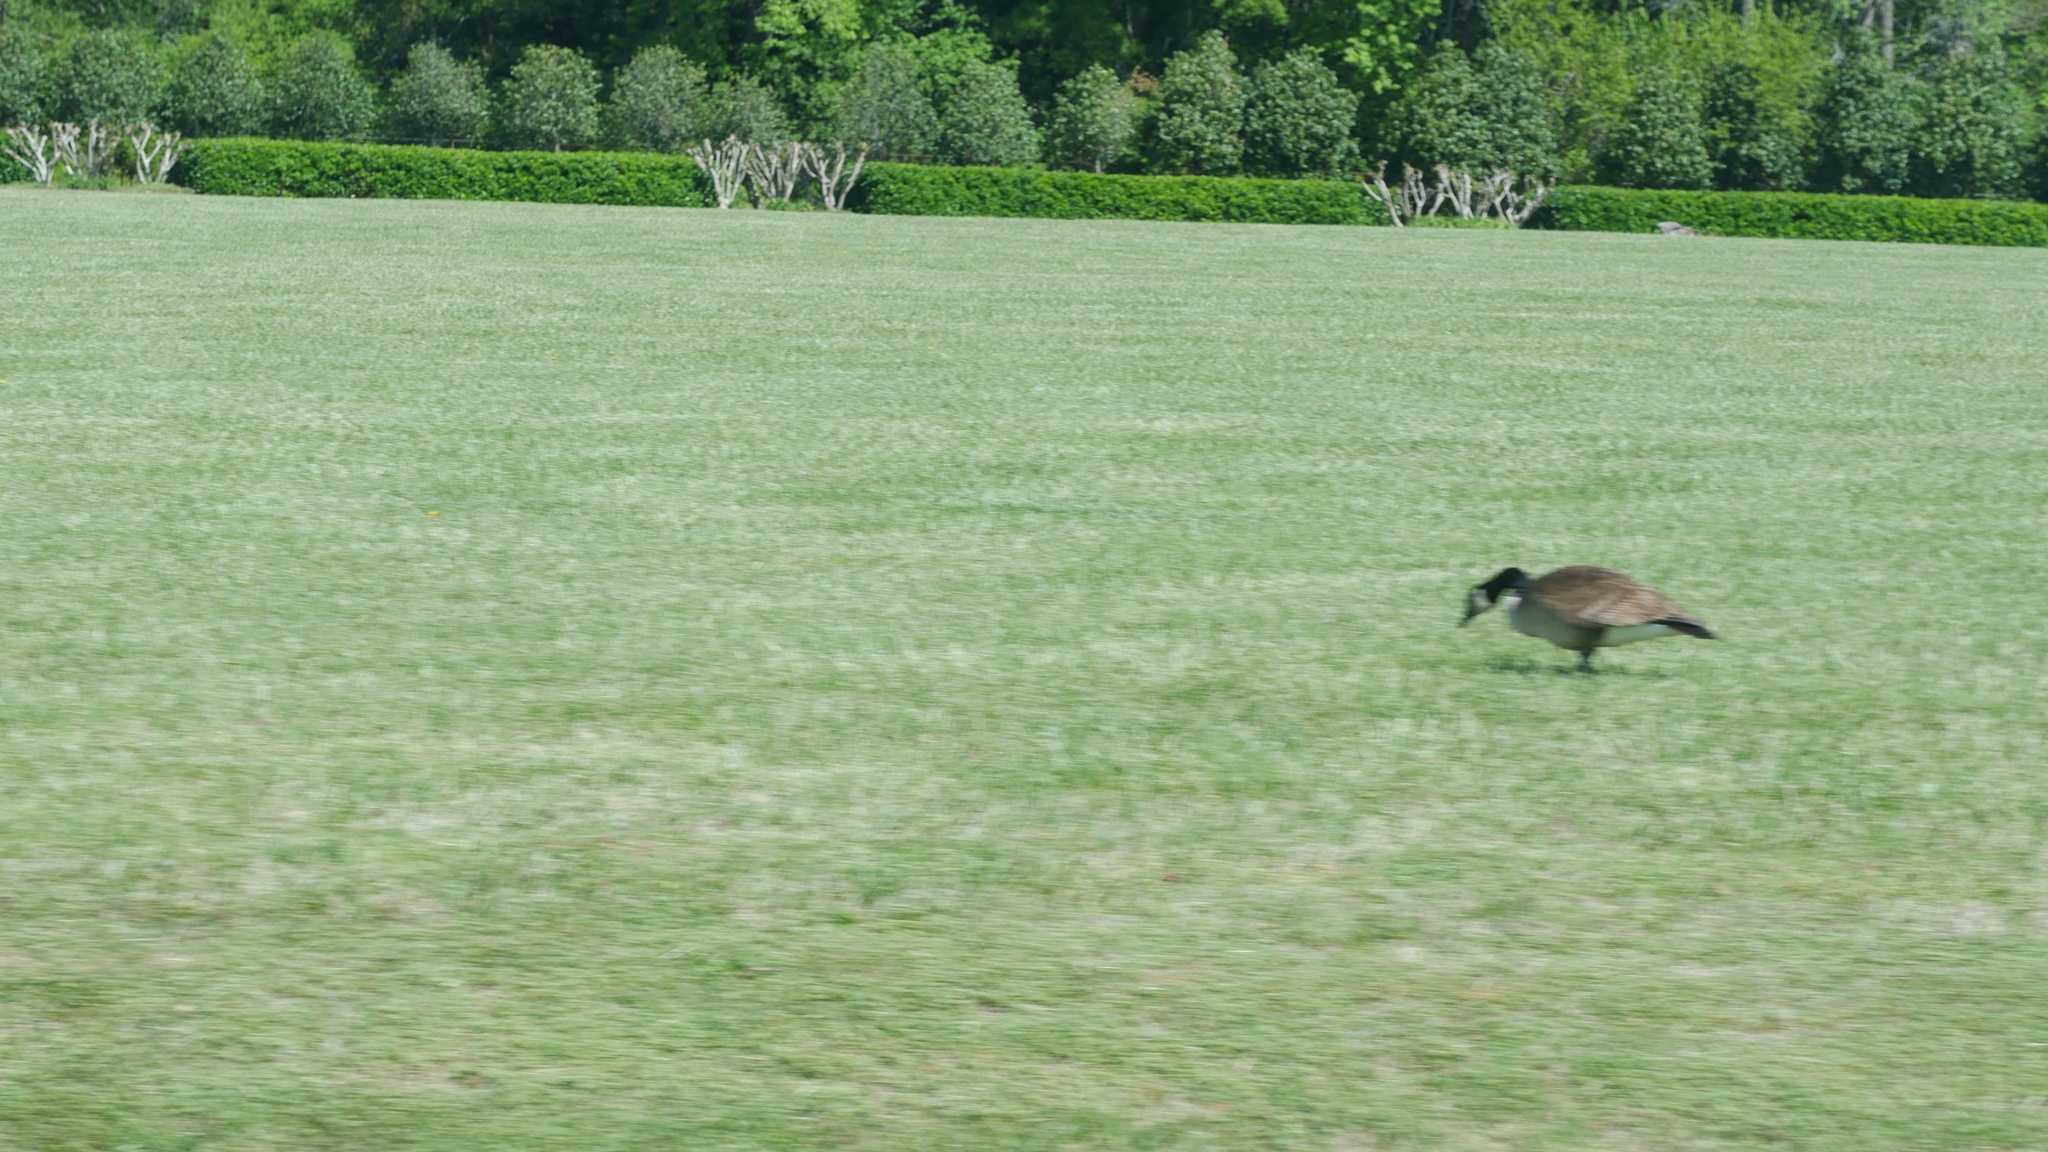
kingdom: Animalia
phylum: Chordata
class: Aves
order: Anseriformes
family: Anatidae
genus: Branta
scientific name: Branta canadensis
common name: Canada goose
